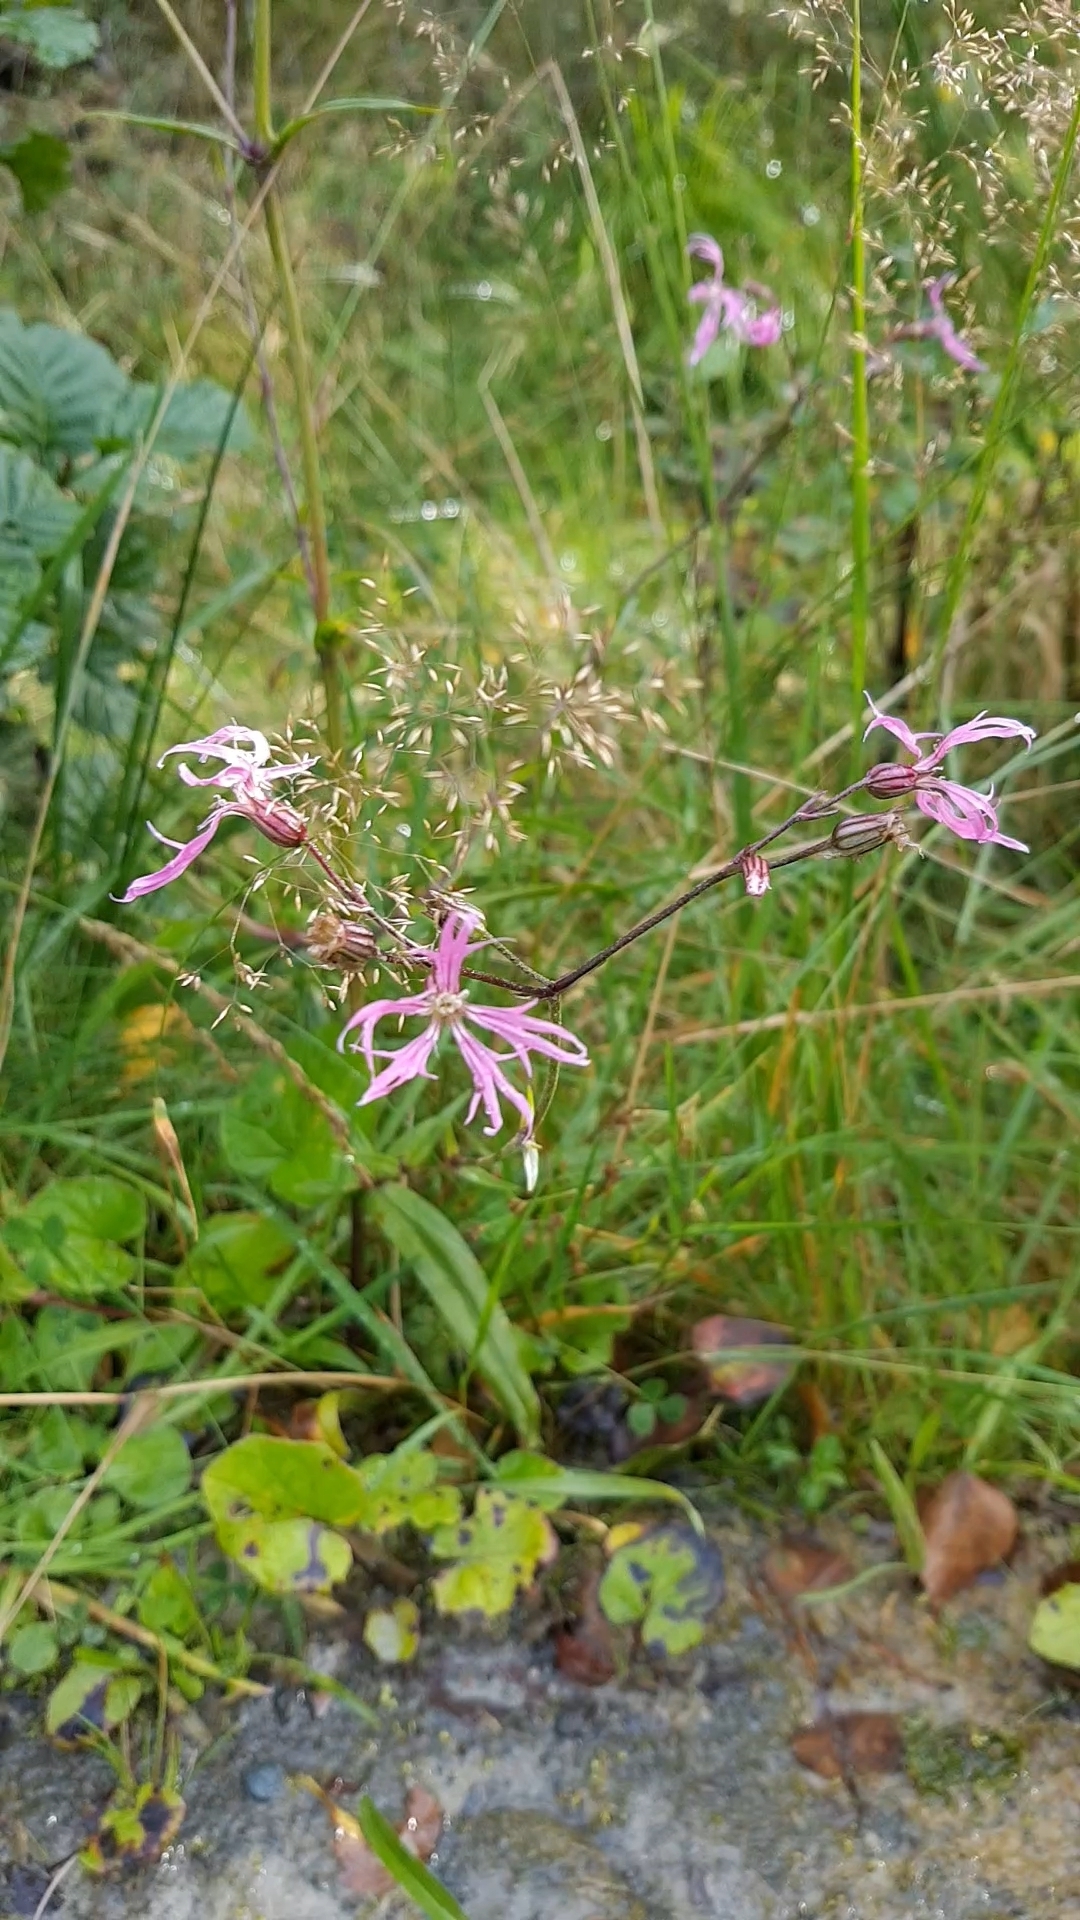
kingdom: Plantae
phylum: Tracheophyta
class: Magnoliopsida
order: Caryophyllales
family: Caryophyllaceae
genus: Silene
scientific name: Silene flos-cuculi
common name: Ragged-robin
